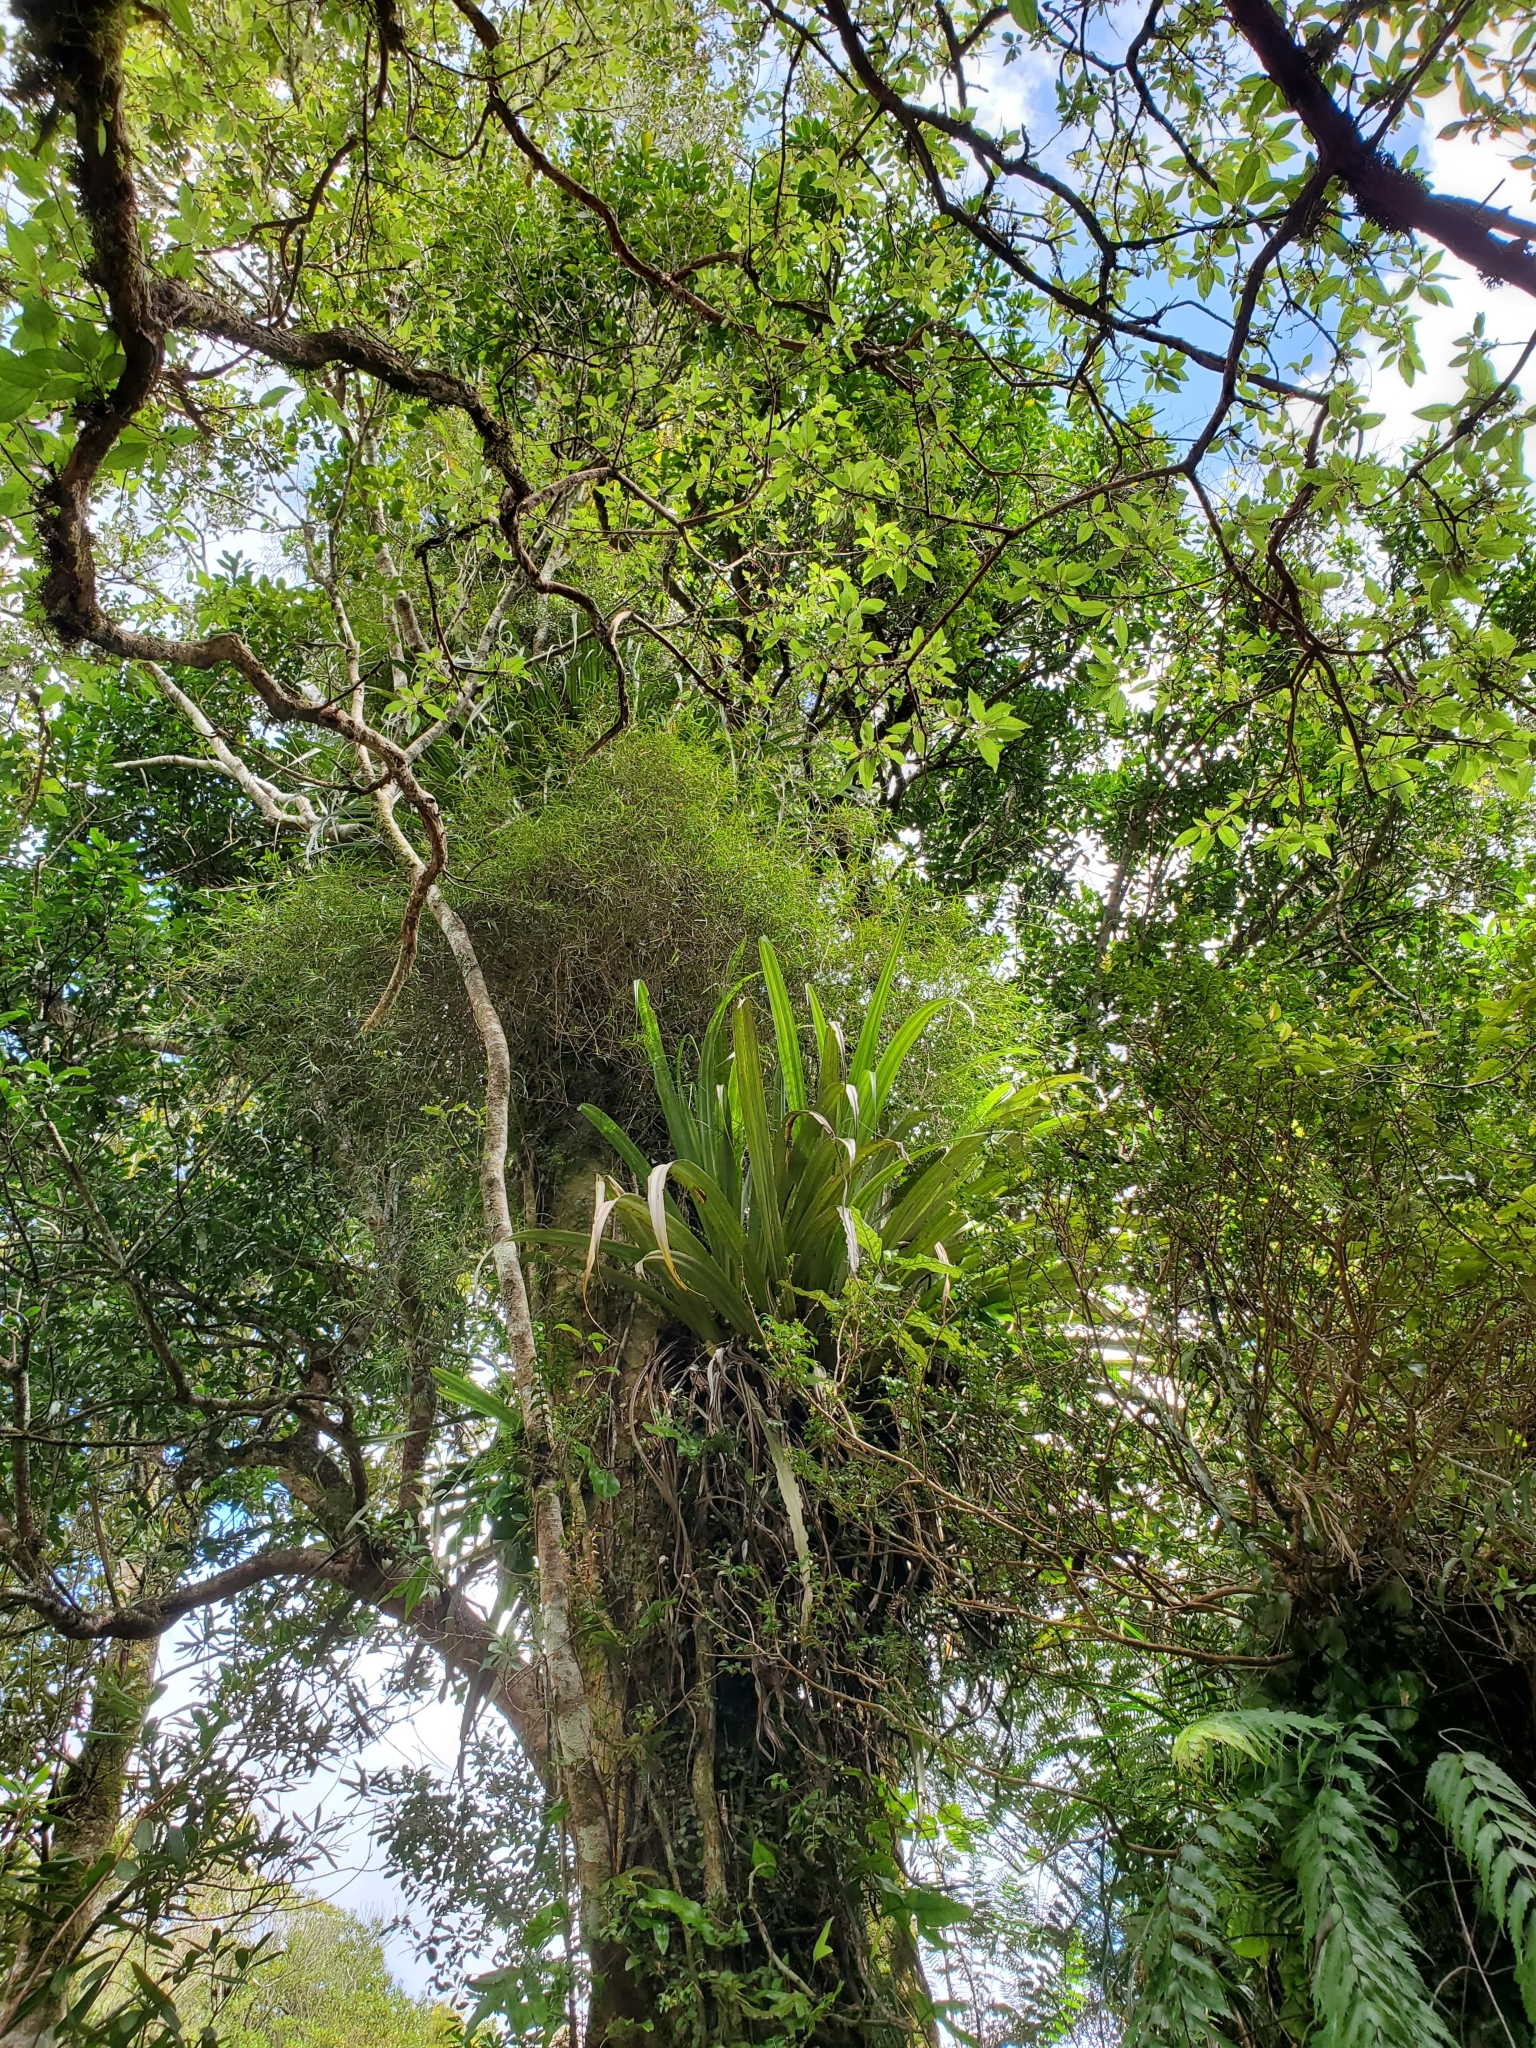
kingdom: Plantae
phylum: Tracheophyta
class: Liliopsida
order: Asparagales
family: Orchidaceae
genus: Dendrobium
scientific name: Dendrobium cunninghamii
